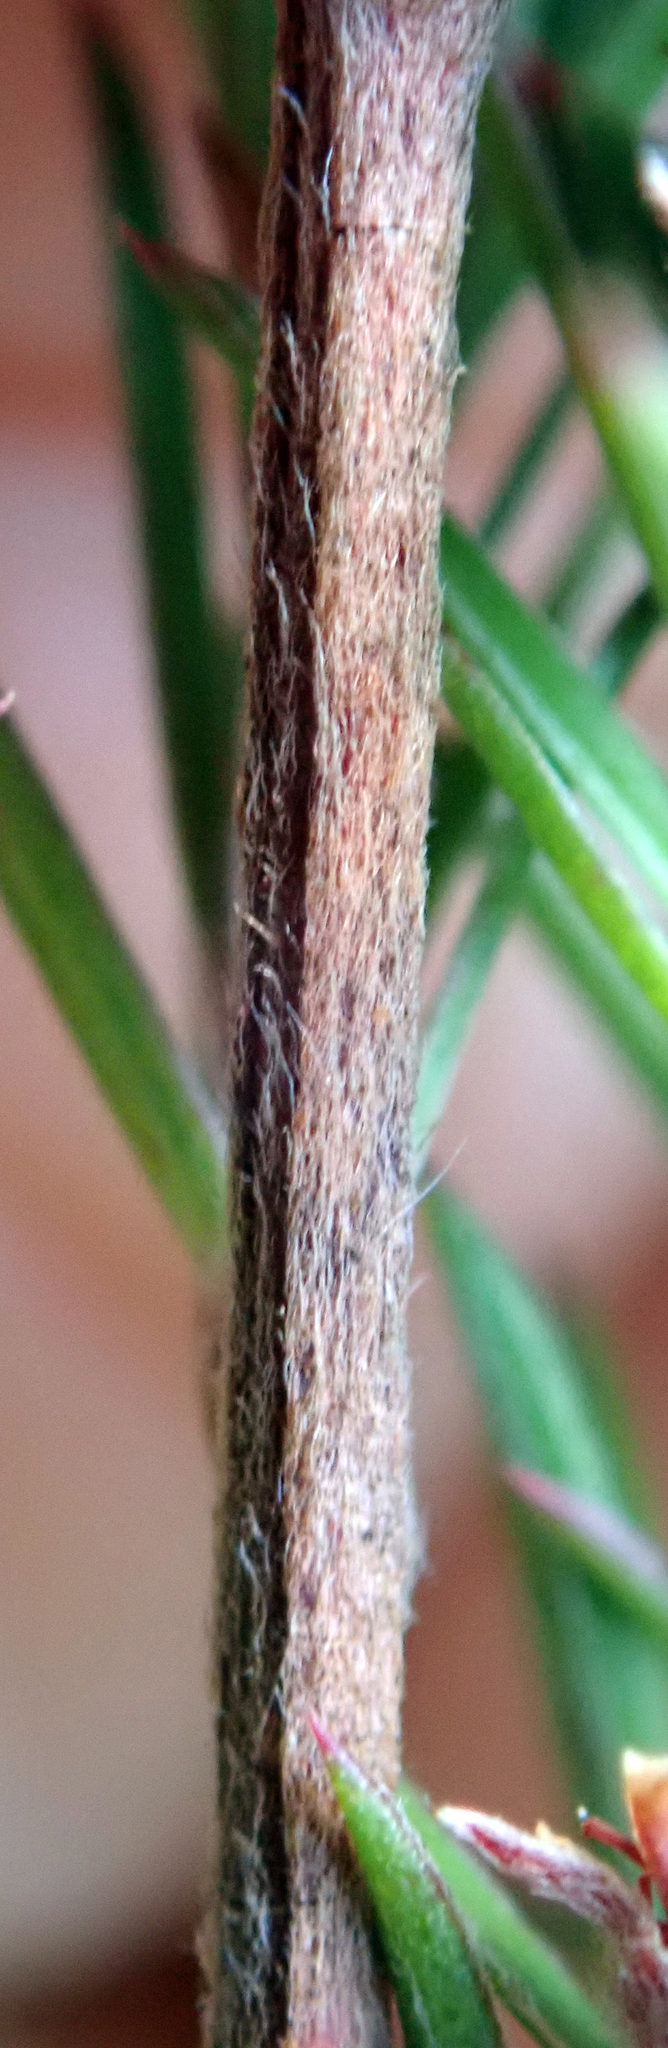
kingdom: Plantae
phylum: Tracheophyta
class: Magnoliopsida
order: Myrtales
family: Myrtaceae
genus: Kunzea
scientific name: Kunzea linearis
